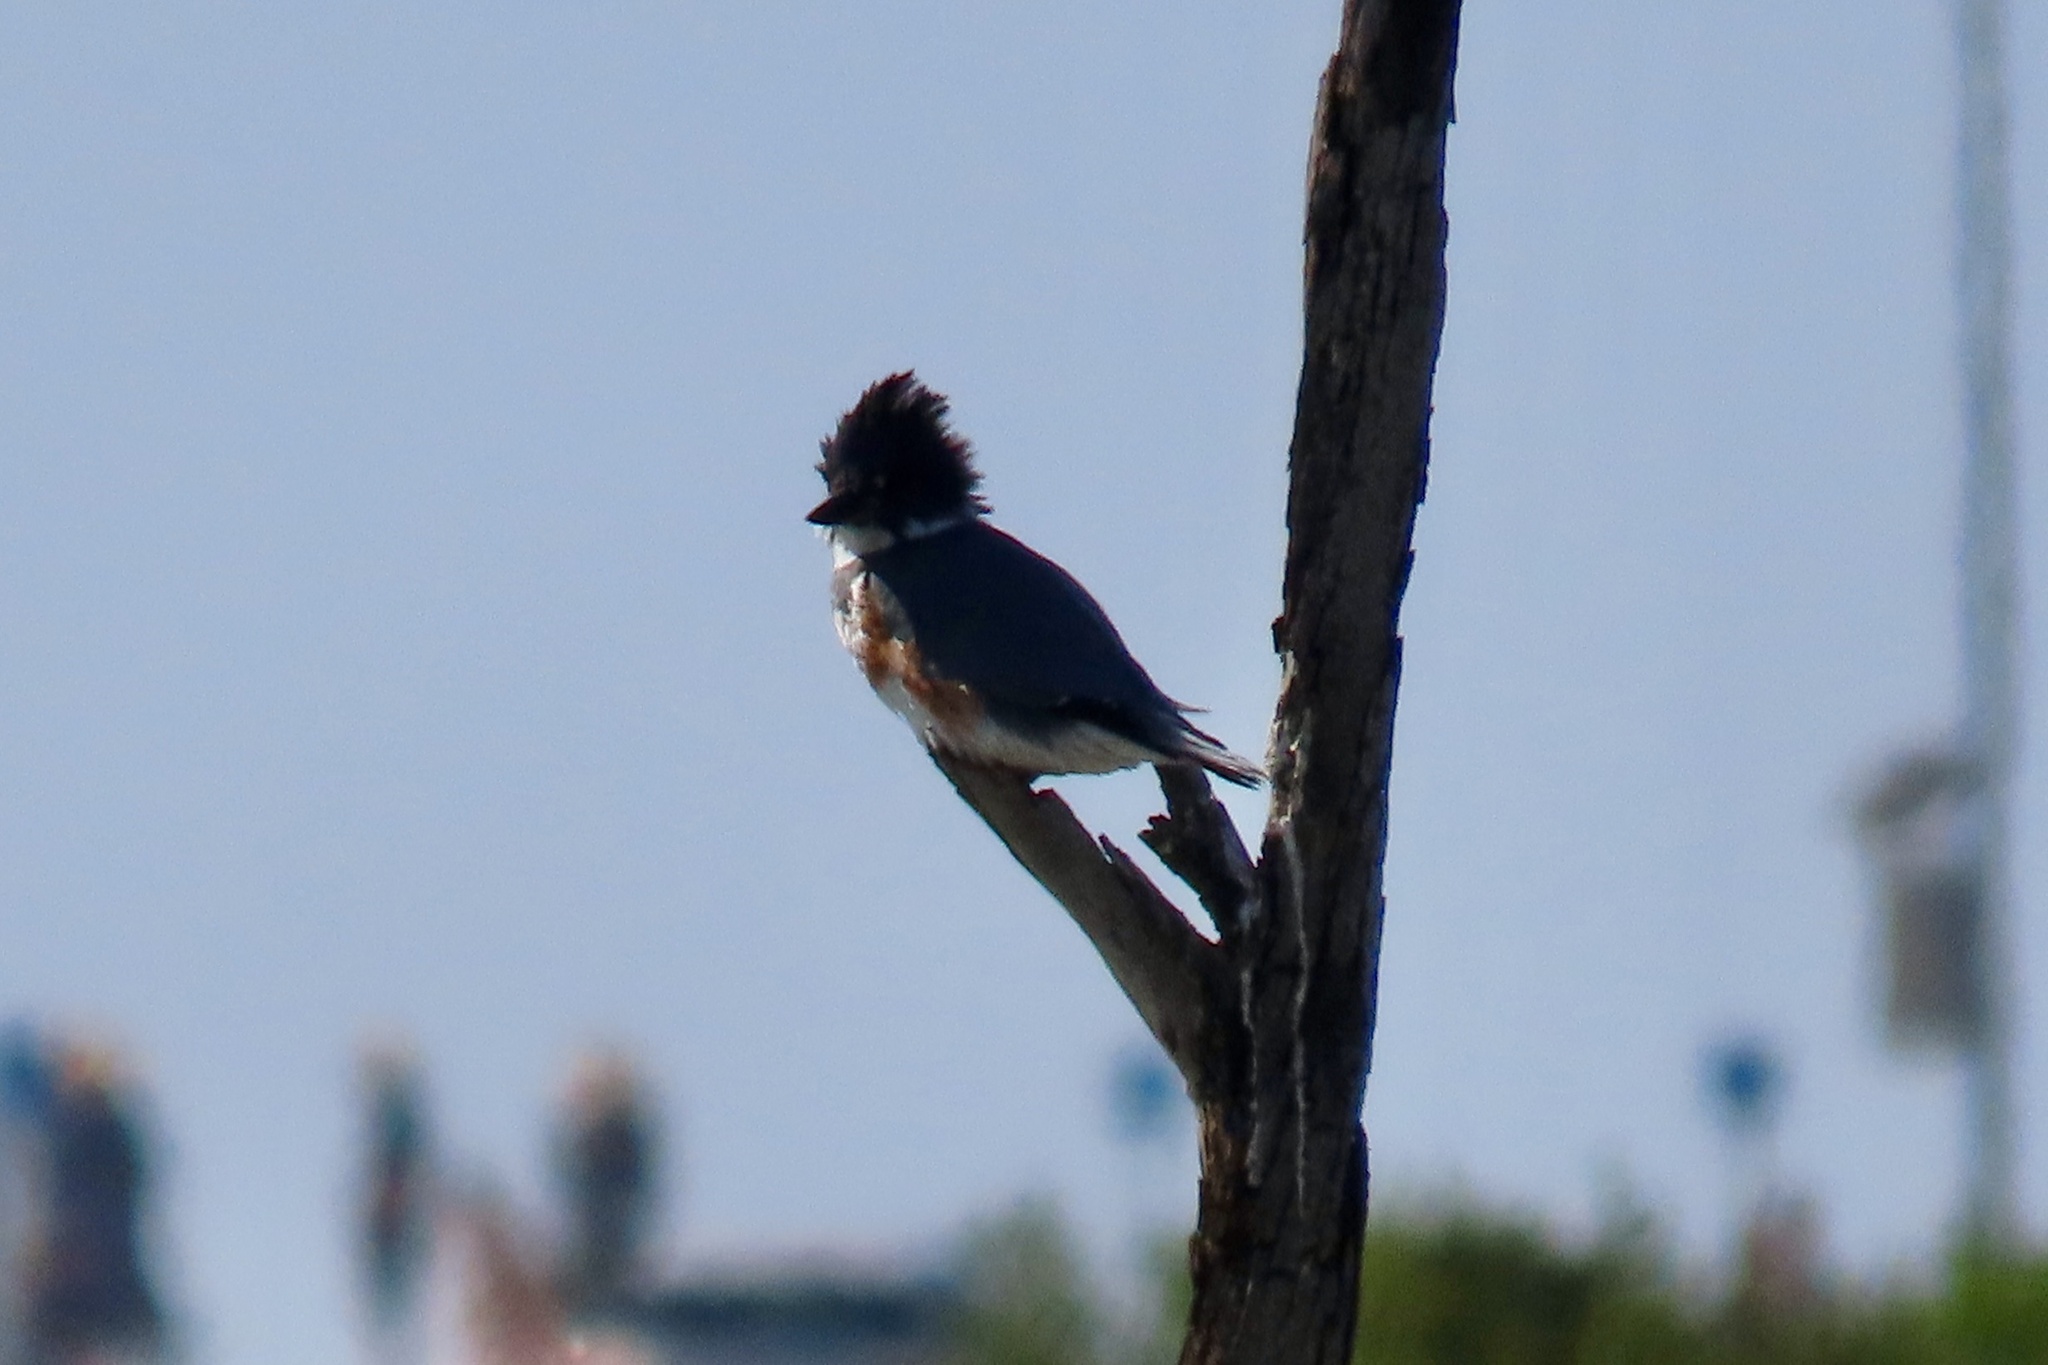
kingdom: Animalia
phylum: Chordata
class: Aves
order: Coraciiformes
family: Alcedinidae
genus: Megaceryle
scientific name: Megaceryle alcyon
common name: Belted kingfisher
